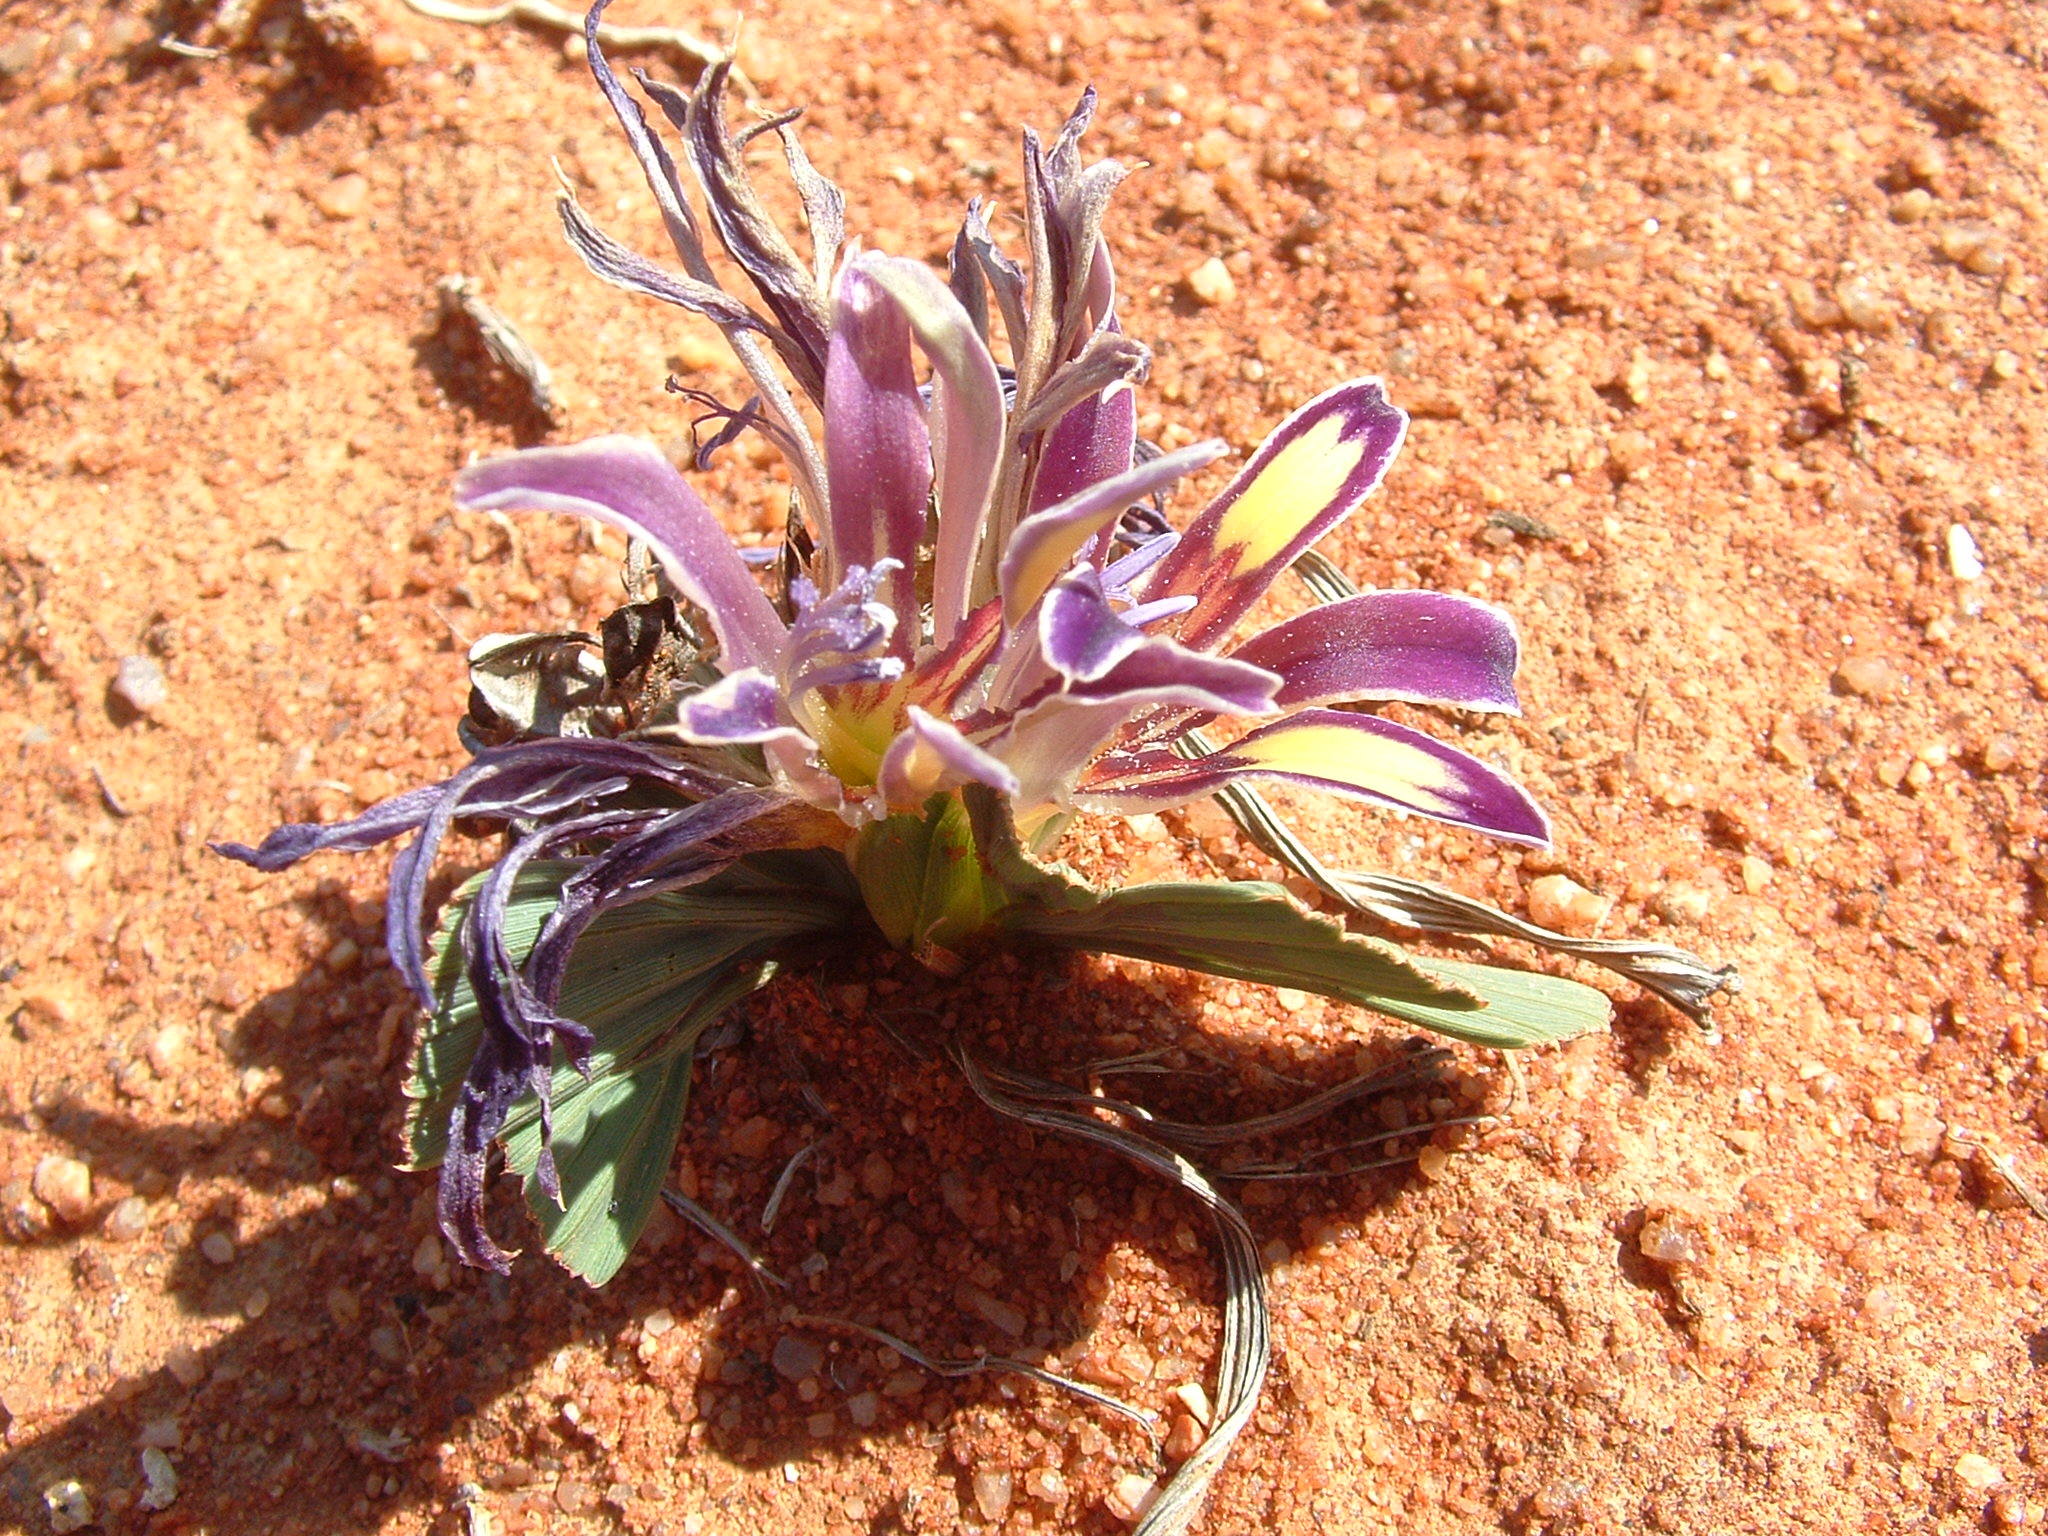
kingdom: Plantae
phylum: Tracheophyta
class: Liliopsida
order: Asparagales
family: Iridaceae
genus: Babiana
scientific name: Babiana flabellifolia
